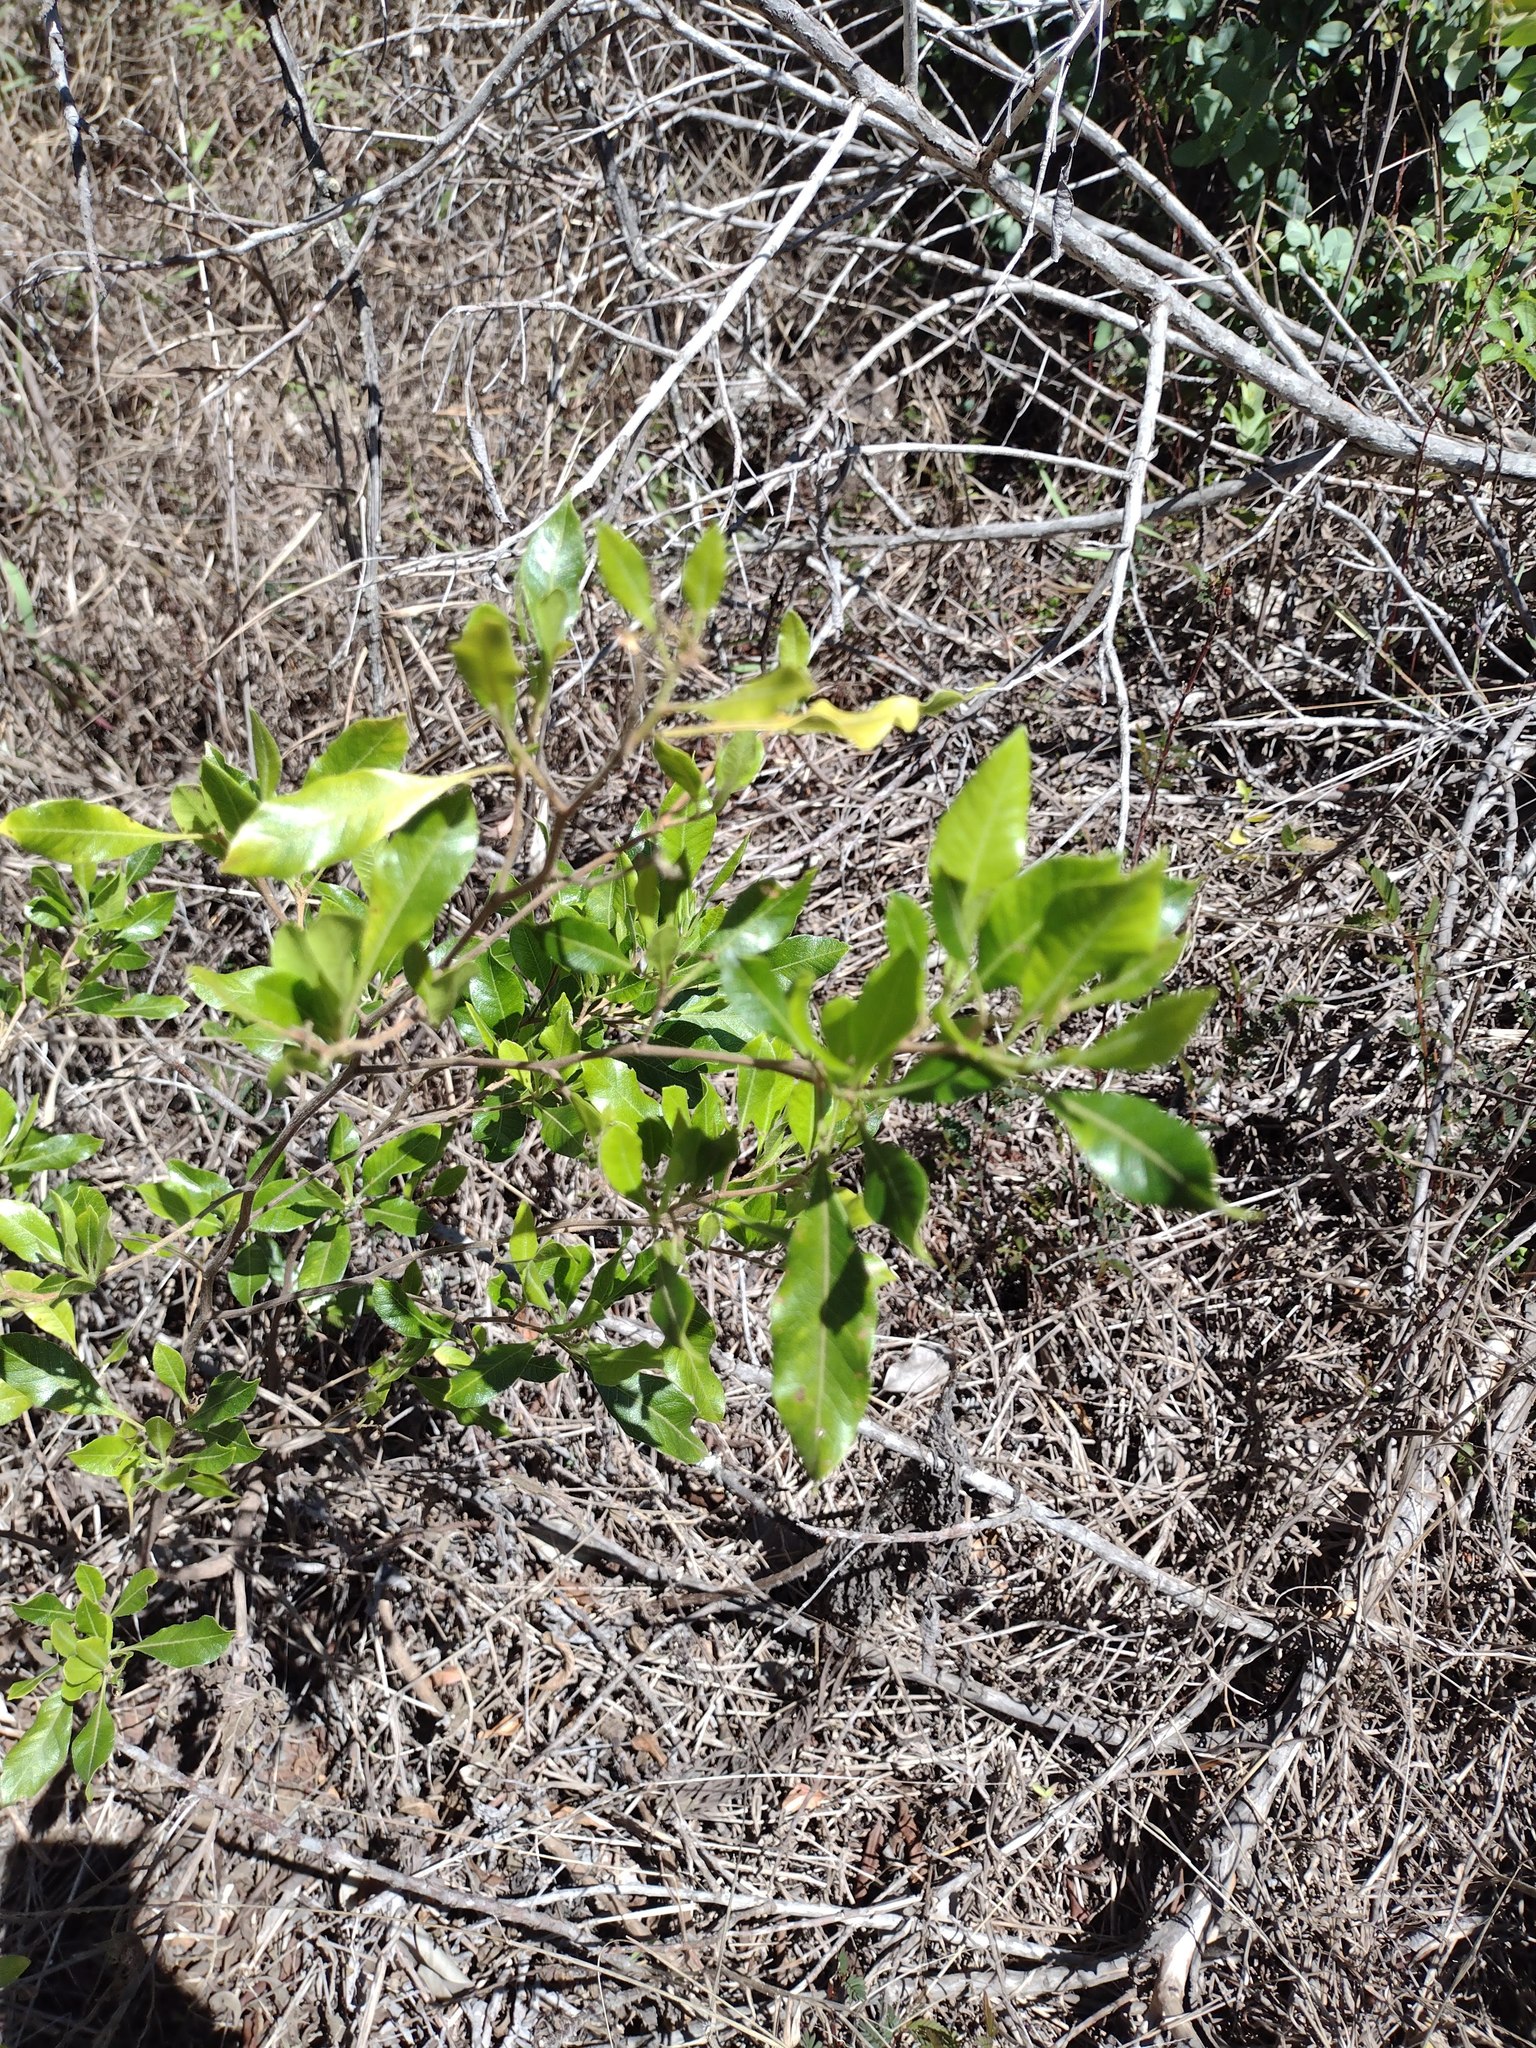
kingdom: Plantae
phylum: Tracheophyta
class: Magnoliopsida
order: Sapindales
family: Sapindaceae
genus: Dodonaea
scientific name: Dodonaea viscosa
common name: Hopbush
